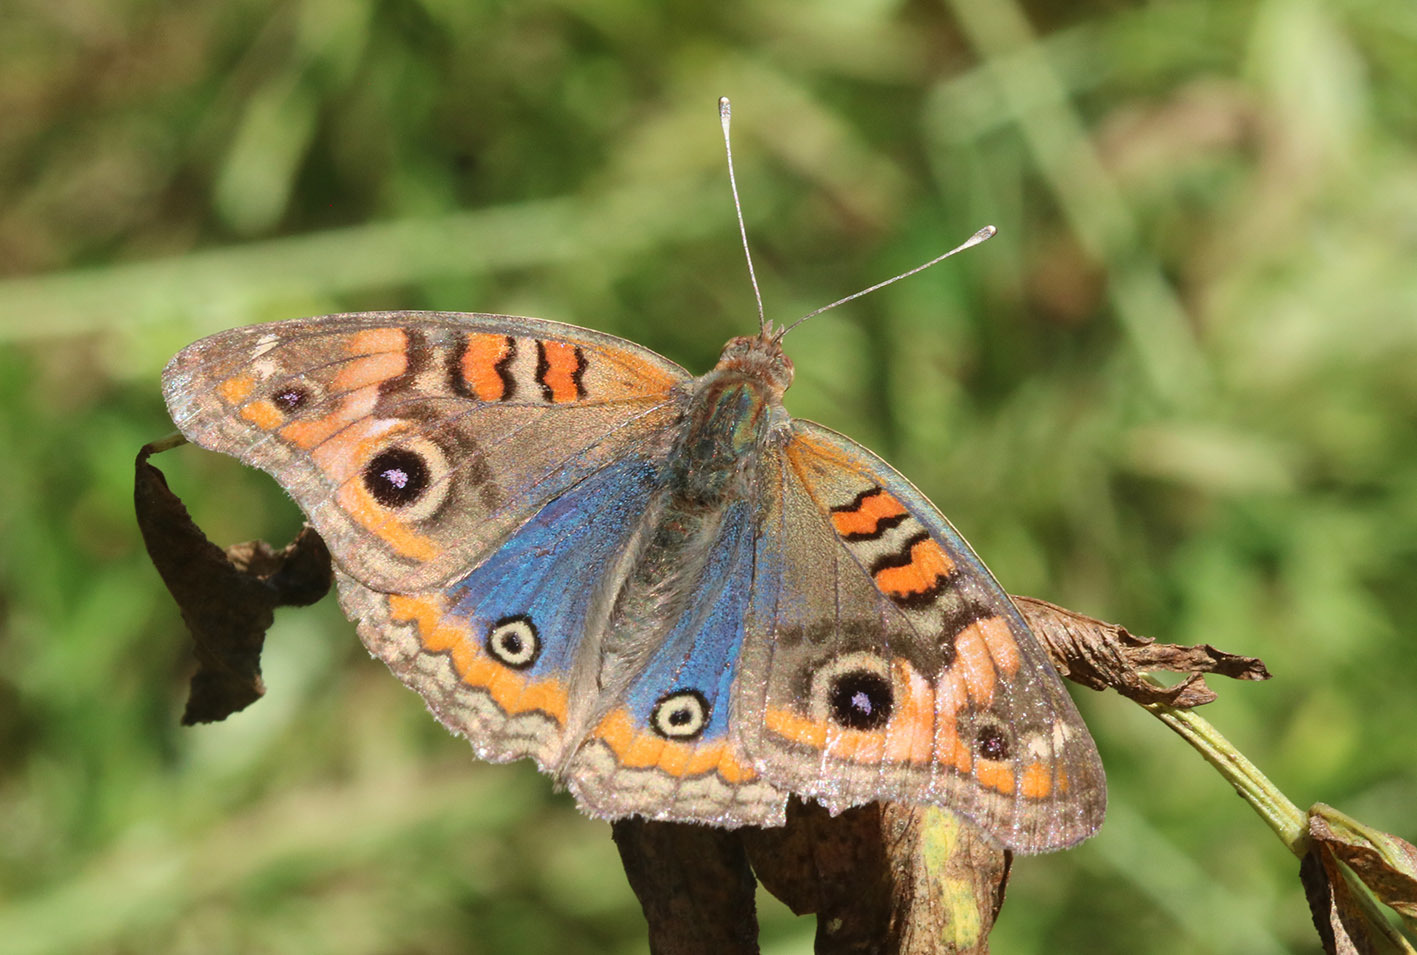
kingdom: Animalia
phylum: Arthropoda
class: Insecta
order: Lepidoptera
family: Nymphalidae
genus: Junonia
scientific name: Junonia lavinia
